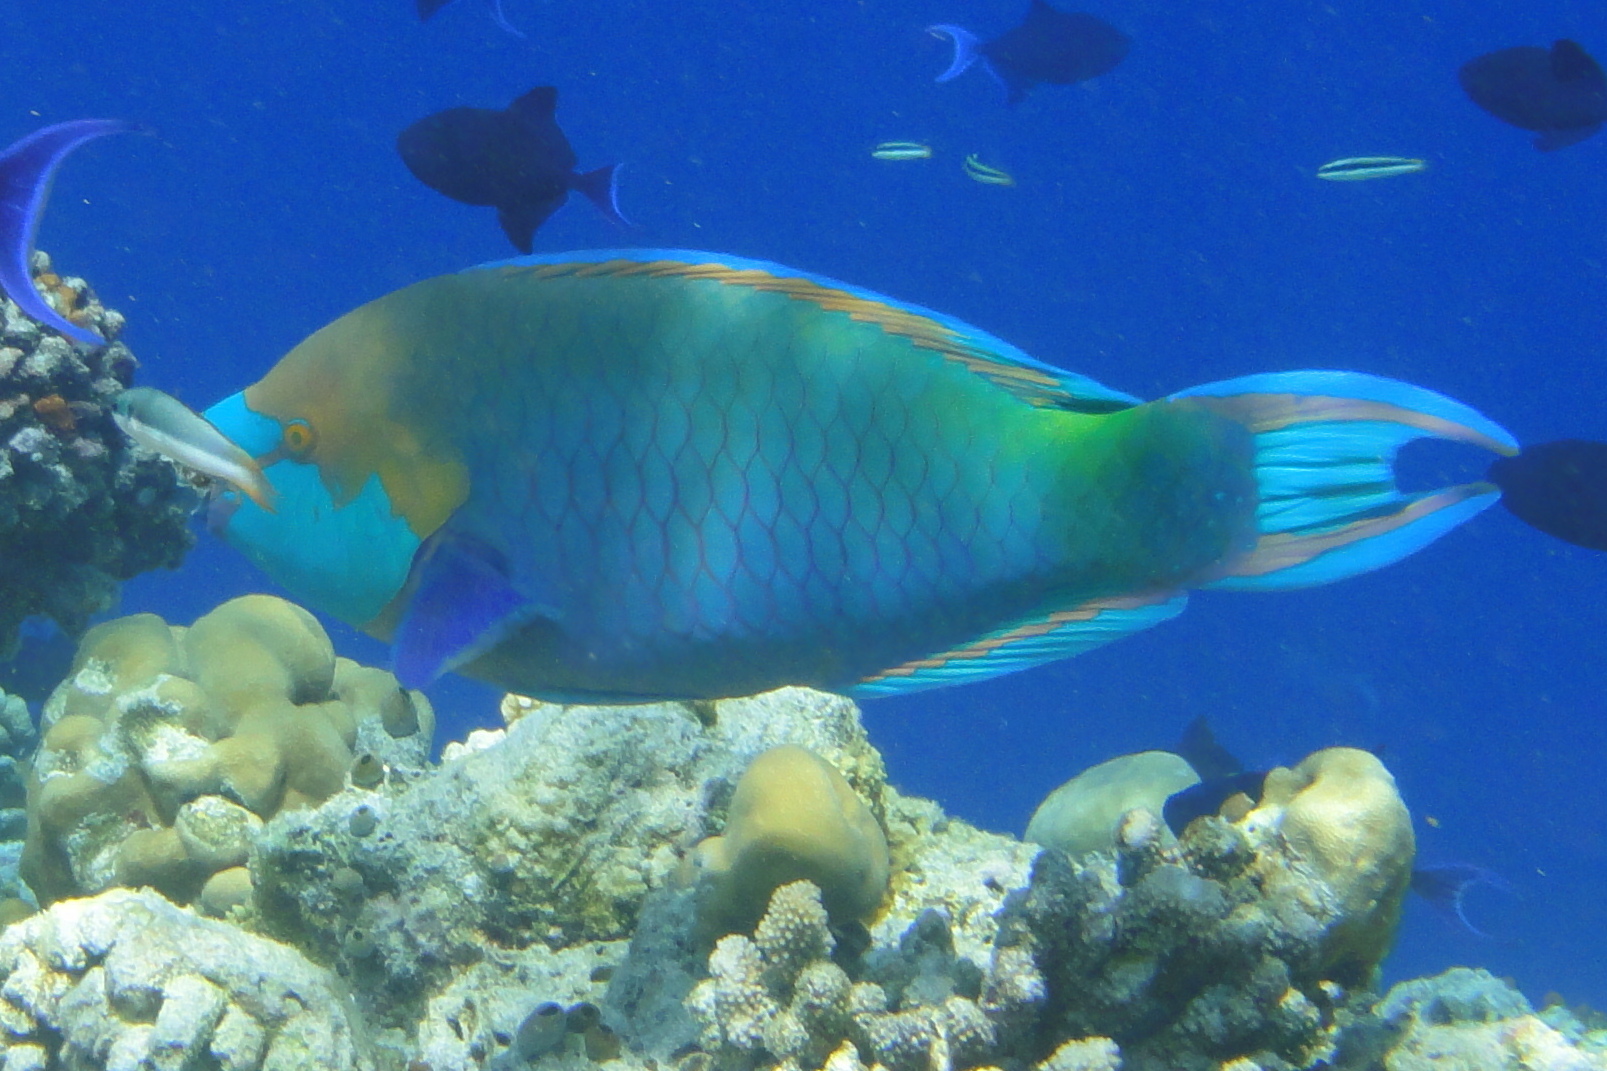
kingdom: Animalia
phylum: Chordata
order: Perciformes
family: Scaridae
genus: Scarus
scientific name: Scarus prasiognathos
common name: Singapore parrotfish
